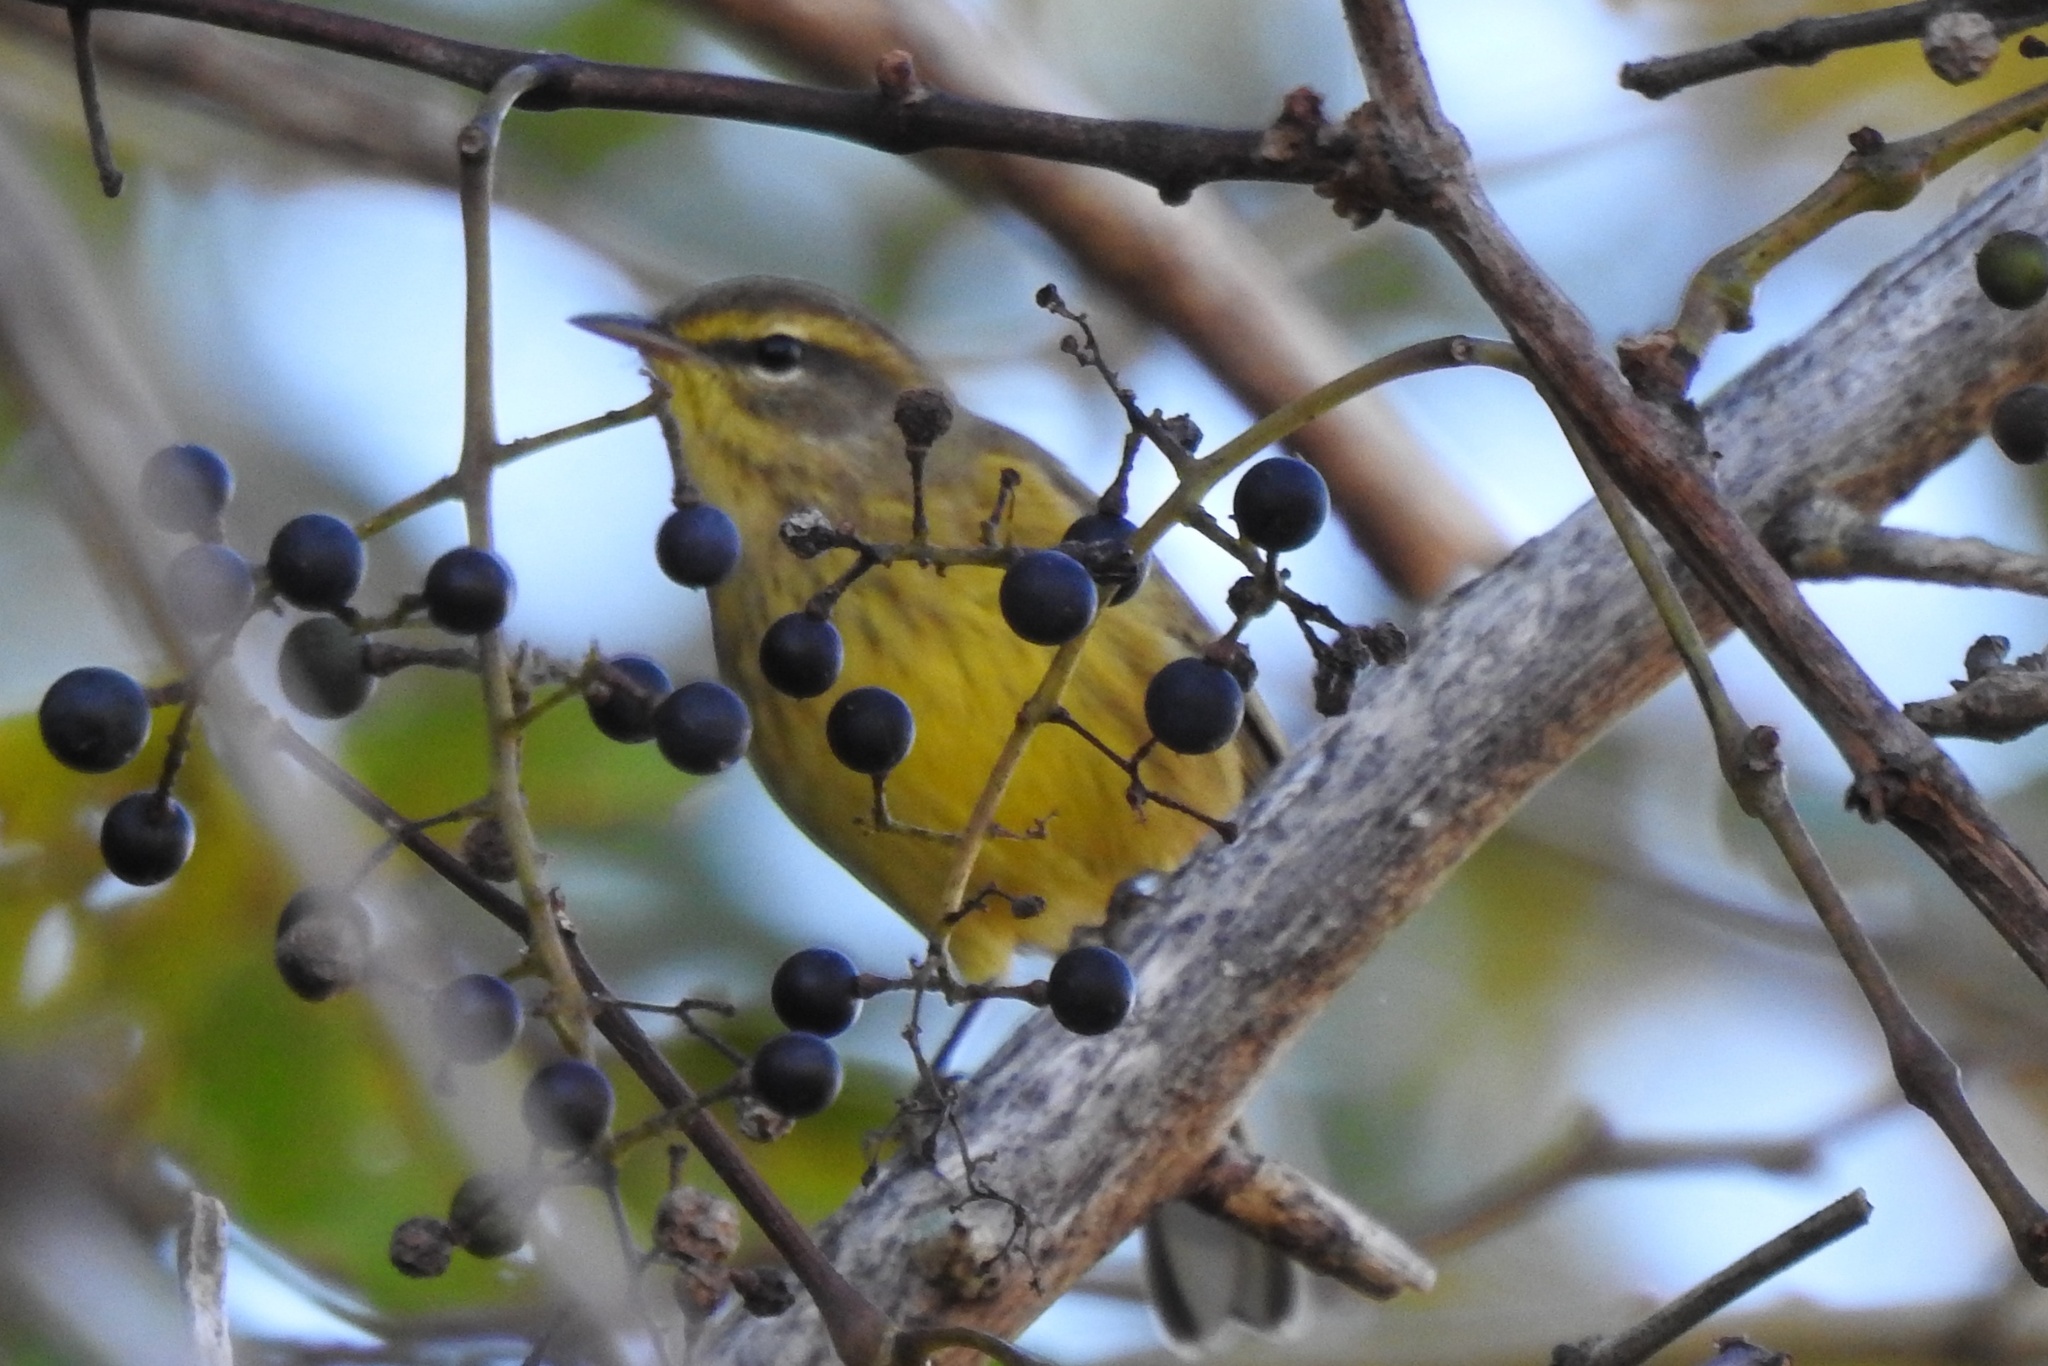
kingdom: Animalia
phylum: Chordata
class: Aves
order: Passeriformes
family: Parulidae
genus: Setophaga
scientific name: Setophaga palmarum
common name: Palm warbler
